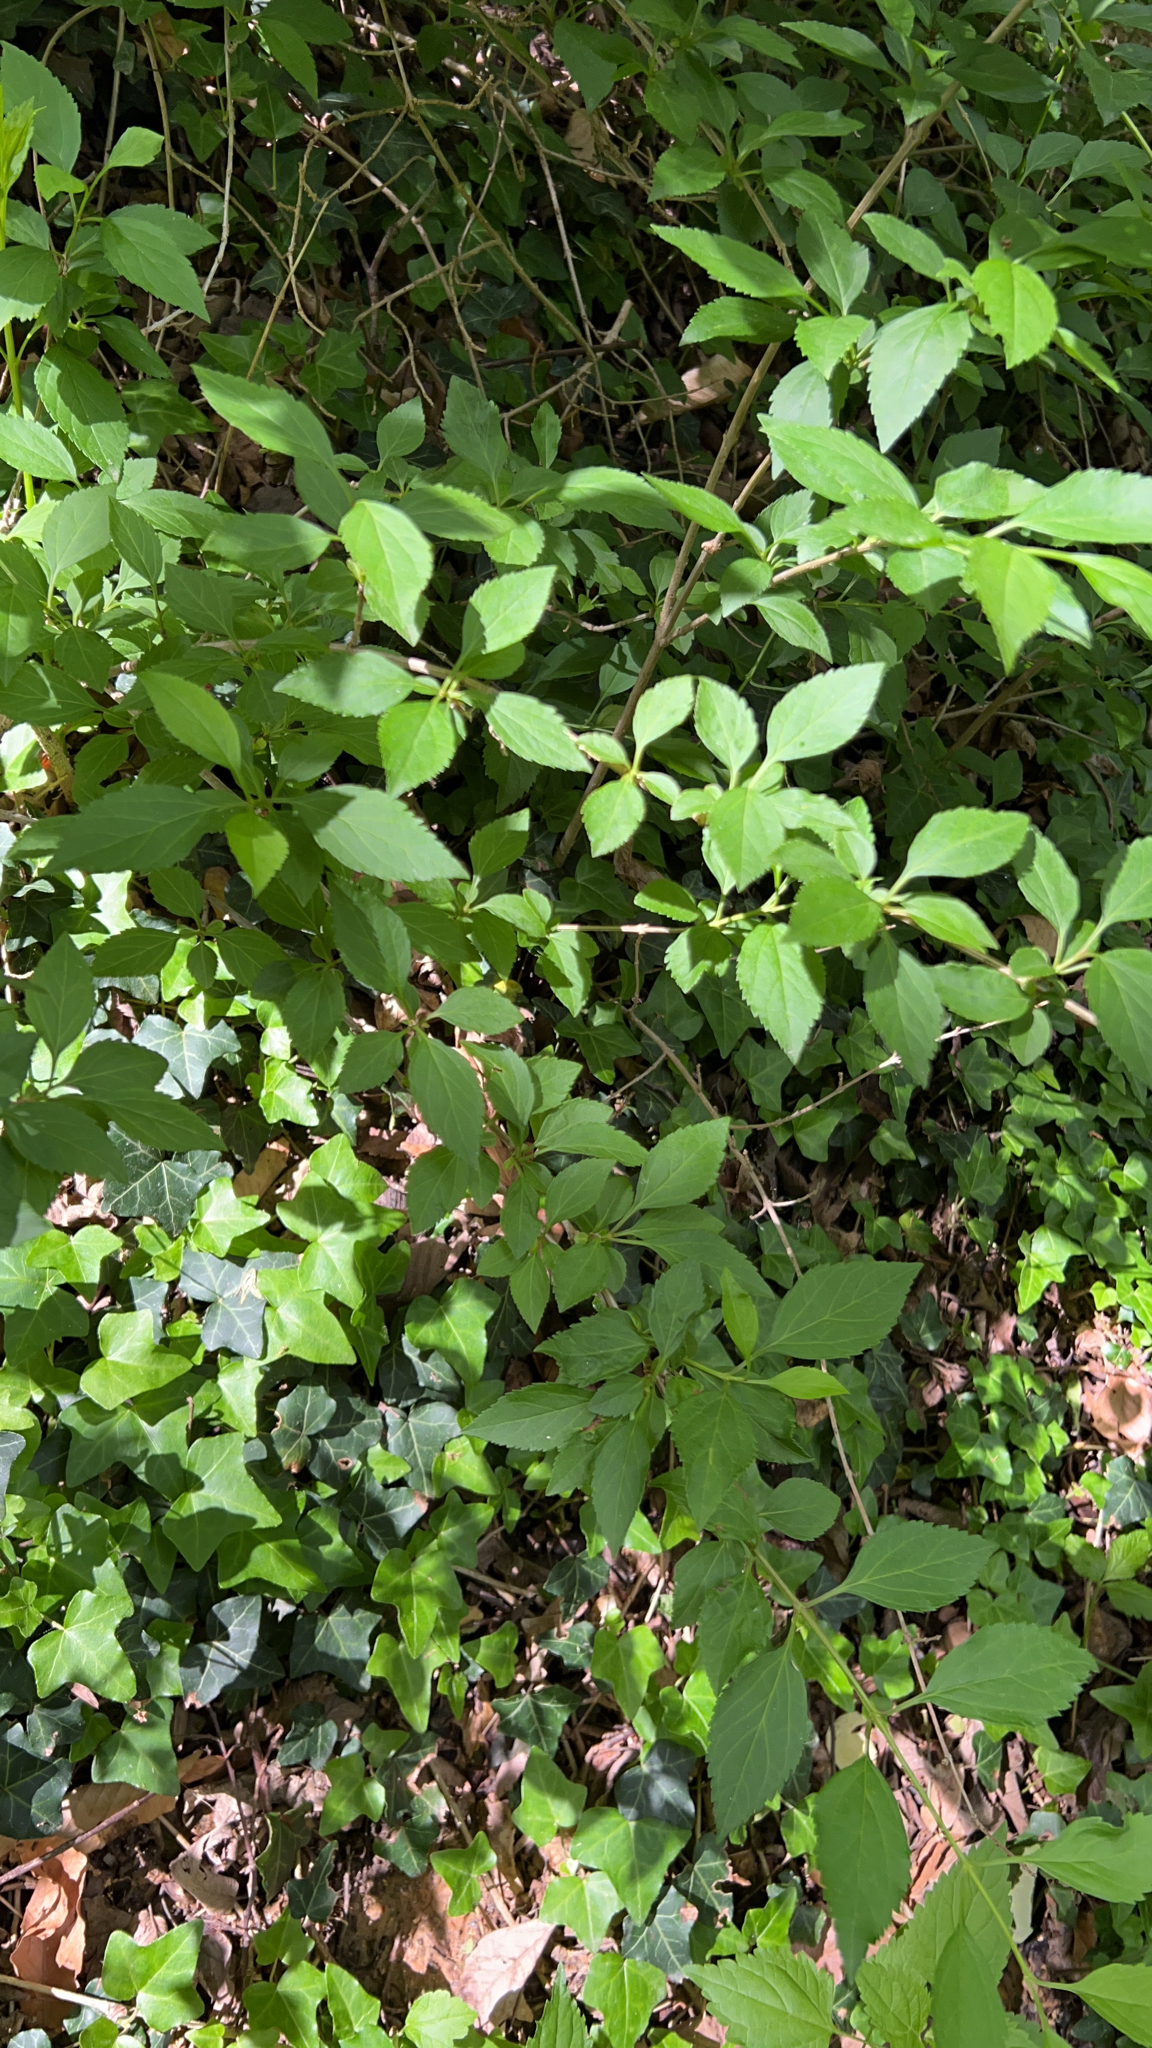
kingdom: Plantae
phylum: Tracheophyta
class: Magnoliopsida
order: Lamiales
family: Lamiaceae
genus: Callicarpa
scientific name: Callicarpa americana
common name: American beautyberry
